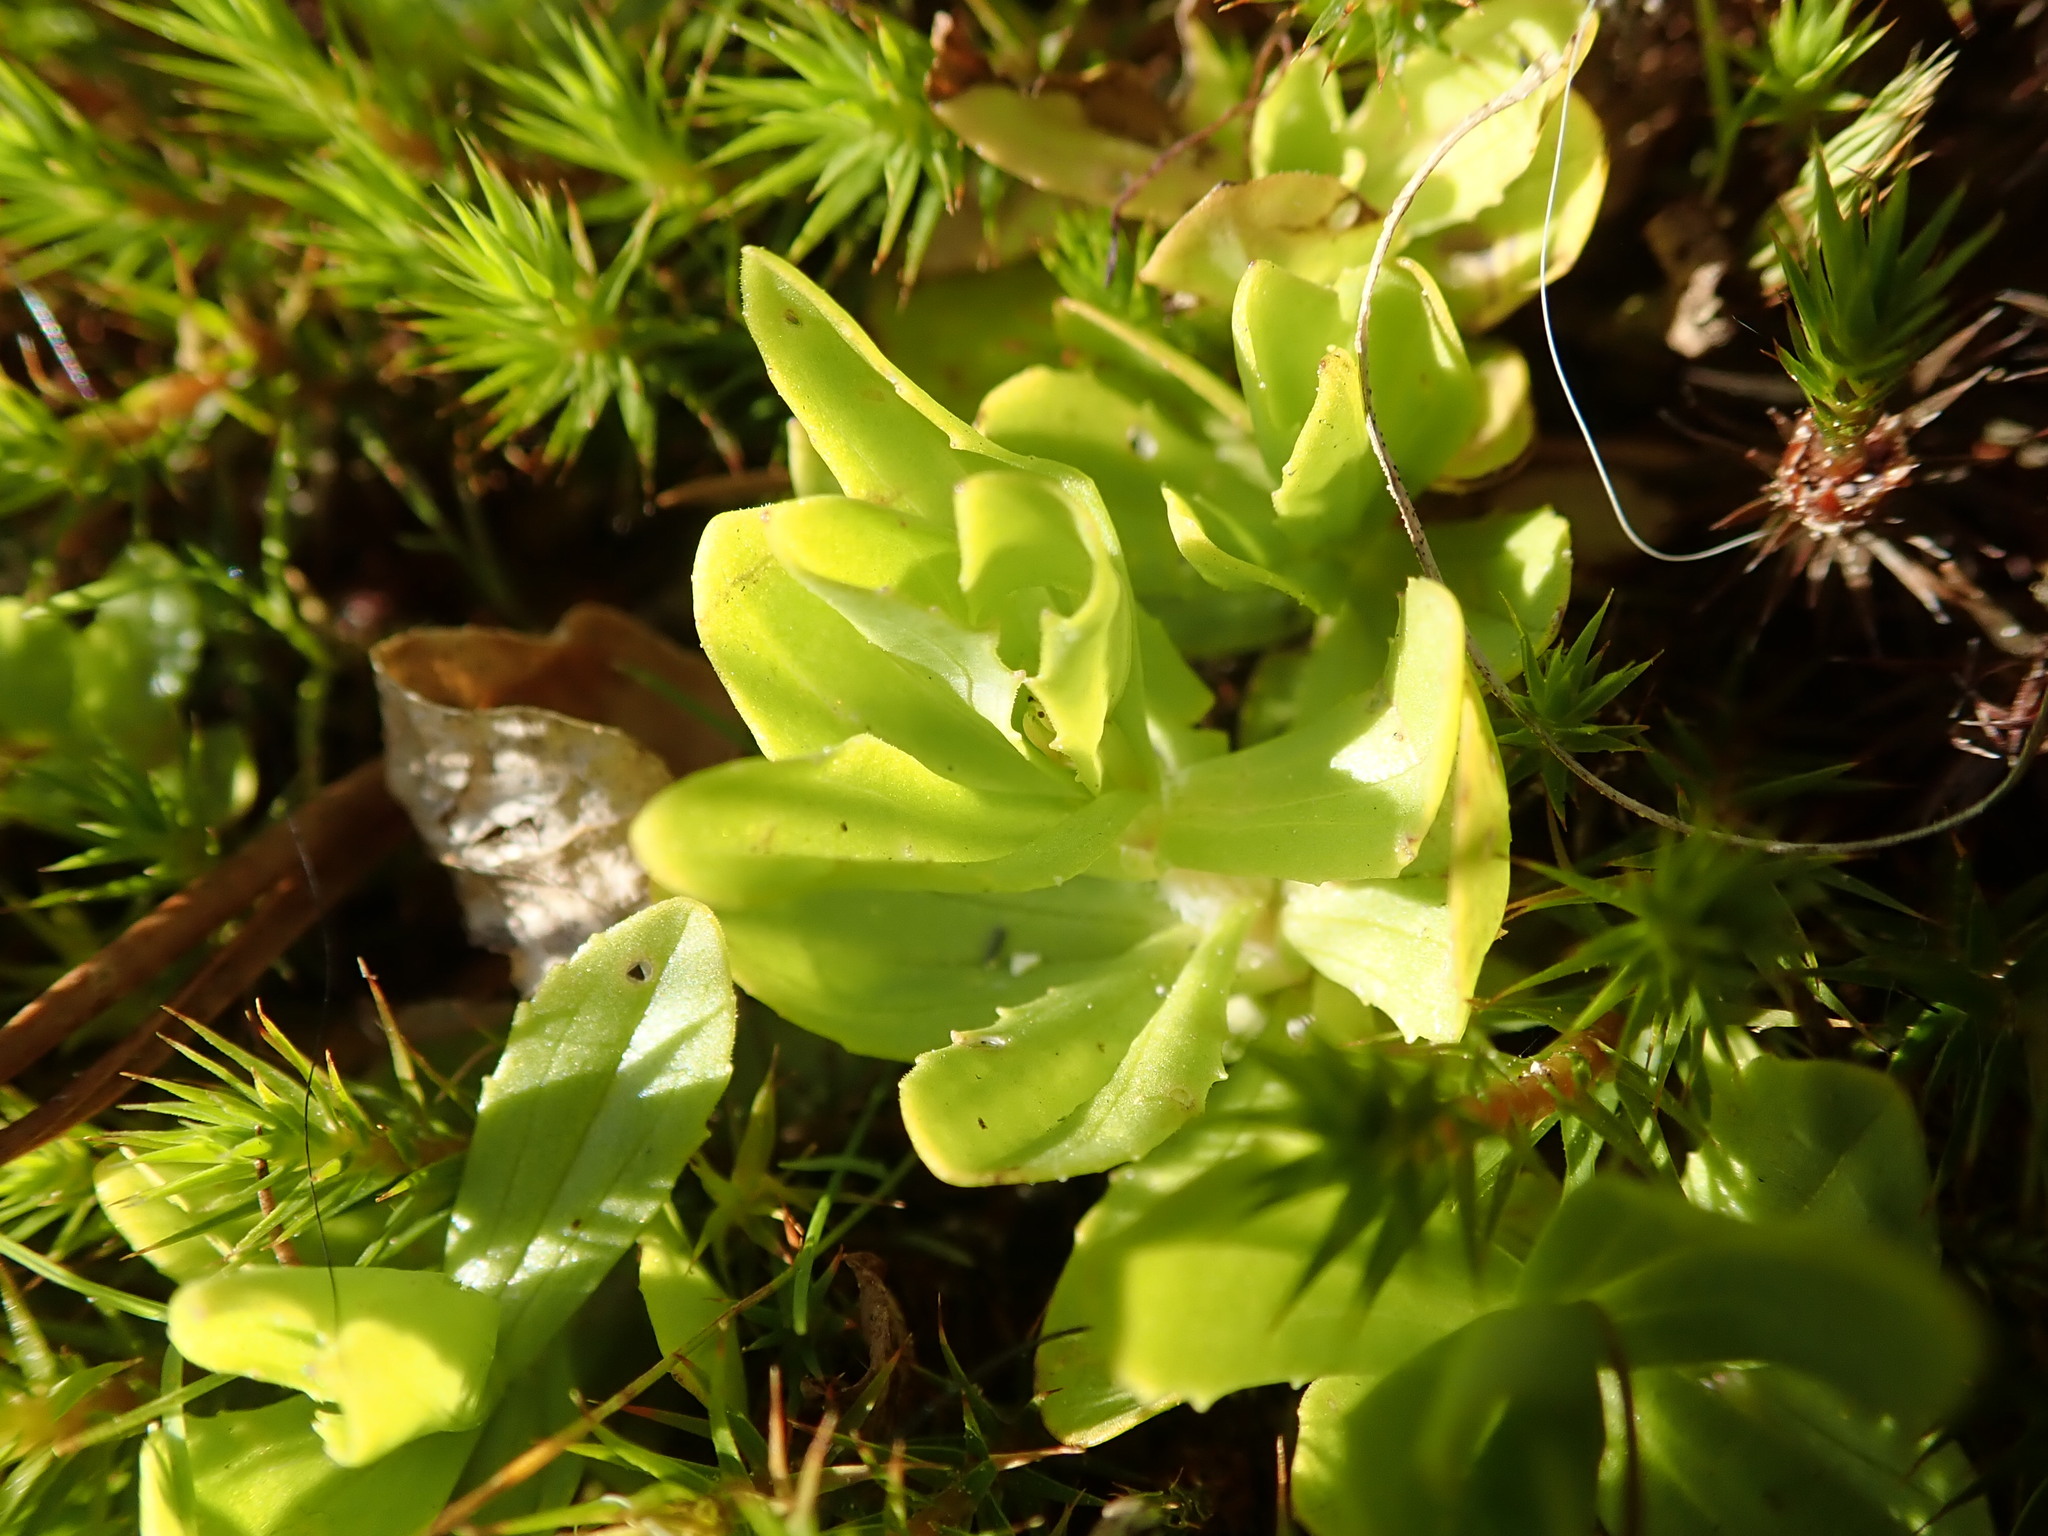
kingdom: Plantae
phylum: Tracheophyta
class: Magnoliopsida
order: Lamiales
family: Phrymaceae
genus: Erythranthe
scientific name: Erythranthe primuloides
